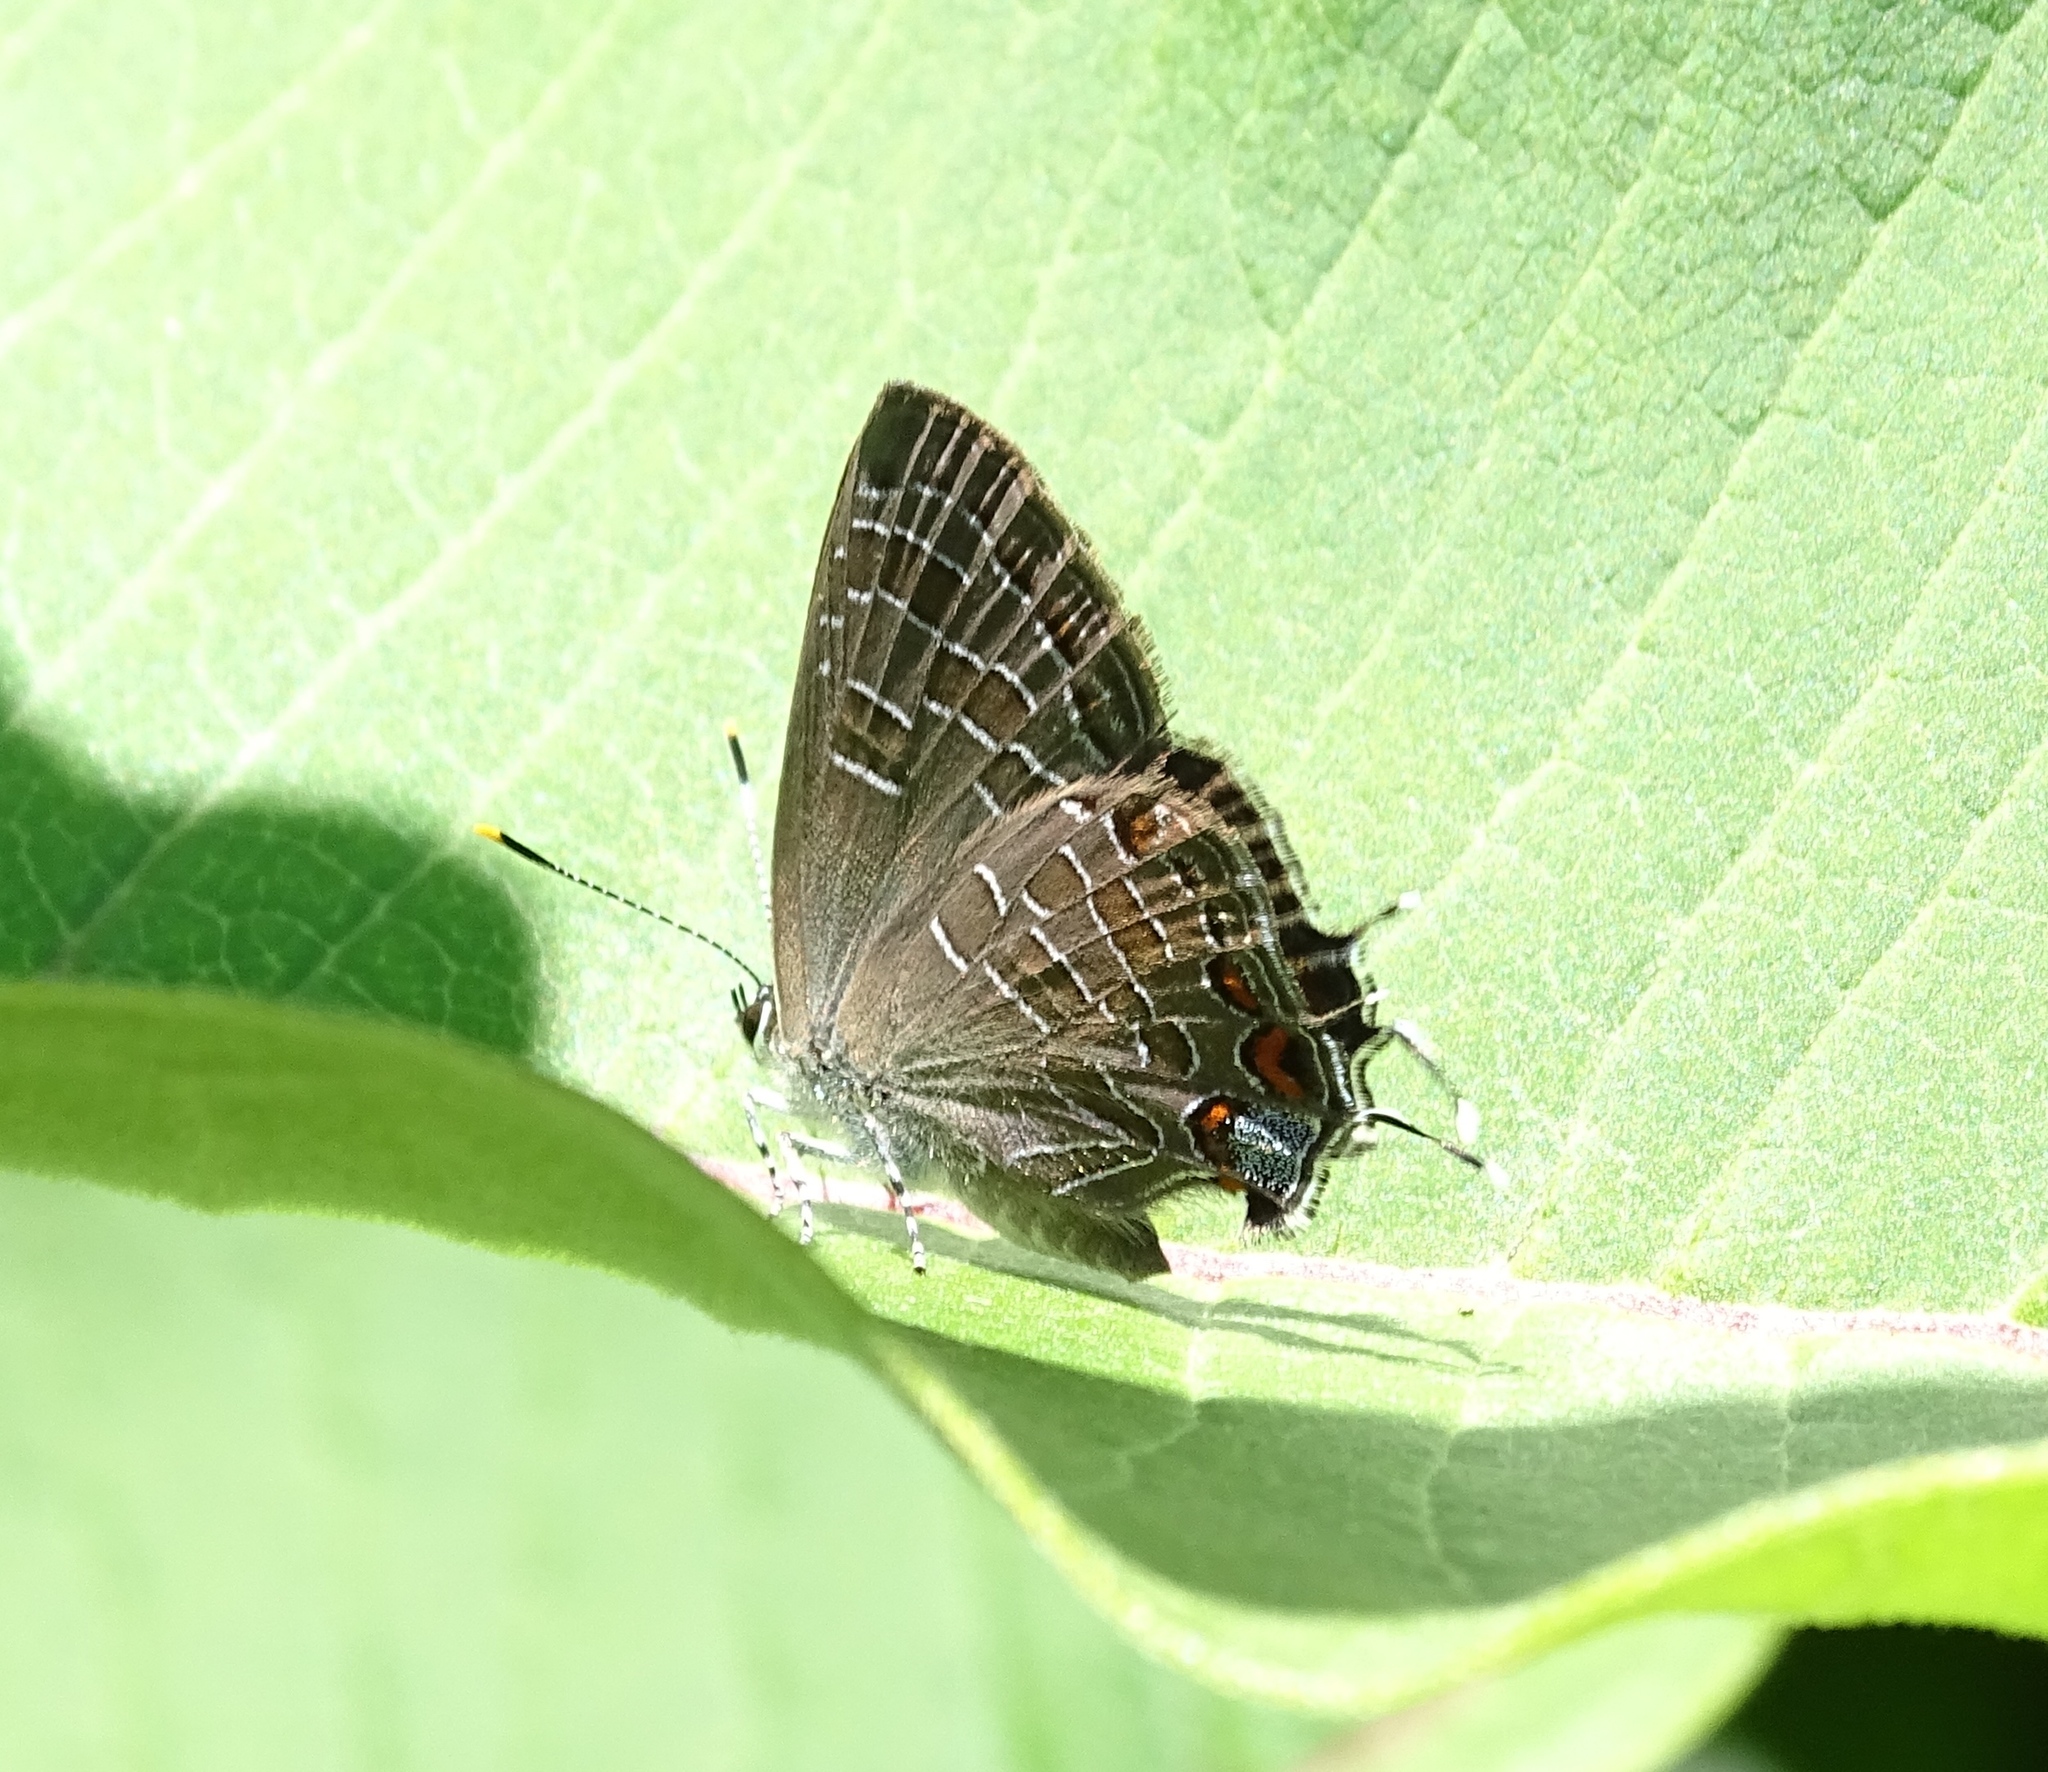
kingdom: Animalia
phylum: Arthropoda
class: Insecta
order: Lepidoptera
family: Lycaenidae
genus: Satyrium
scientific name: Satyrium liparops
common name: Striped hairstreak
